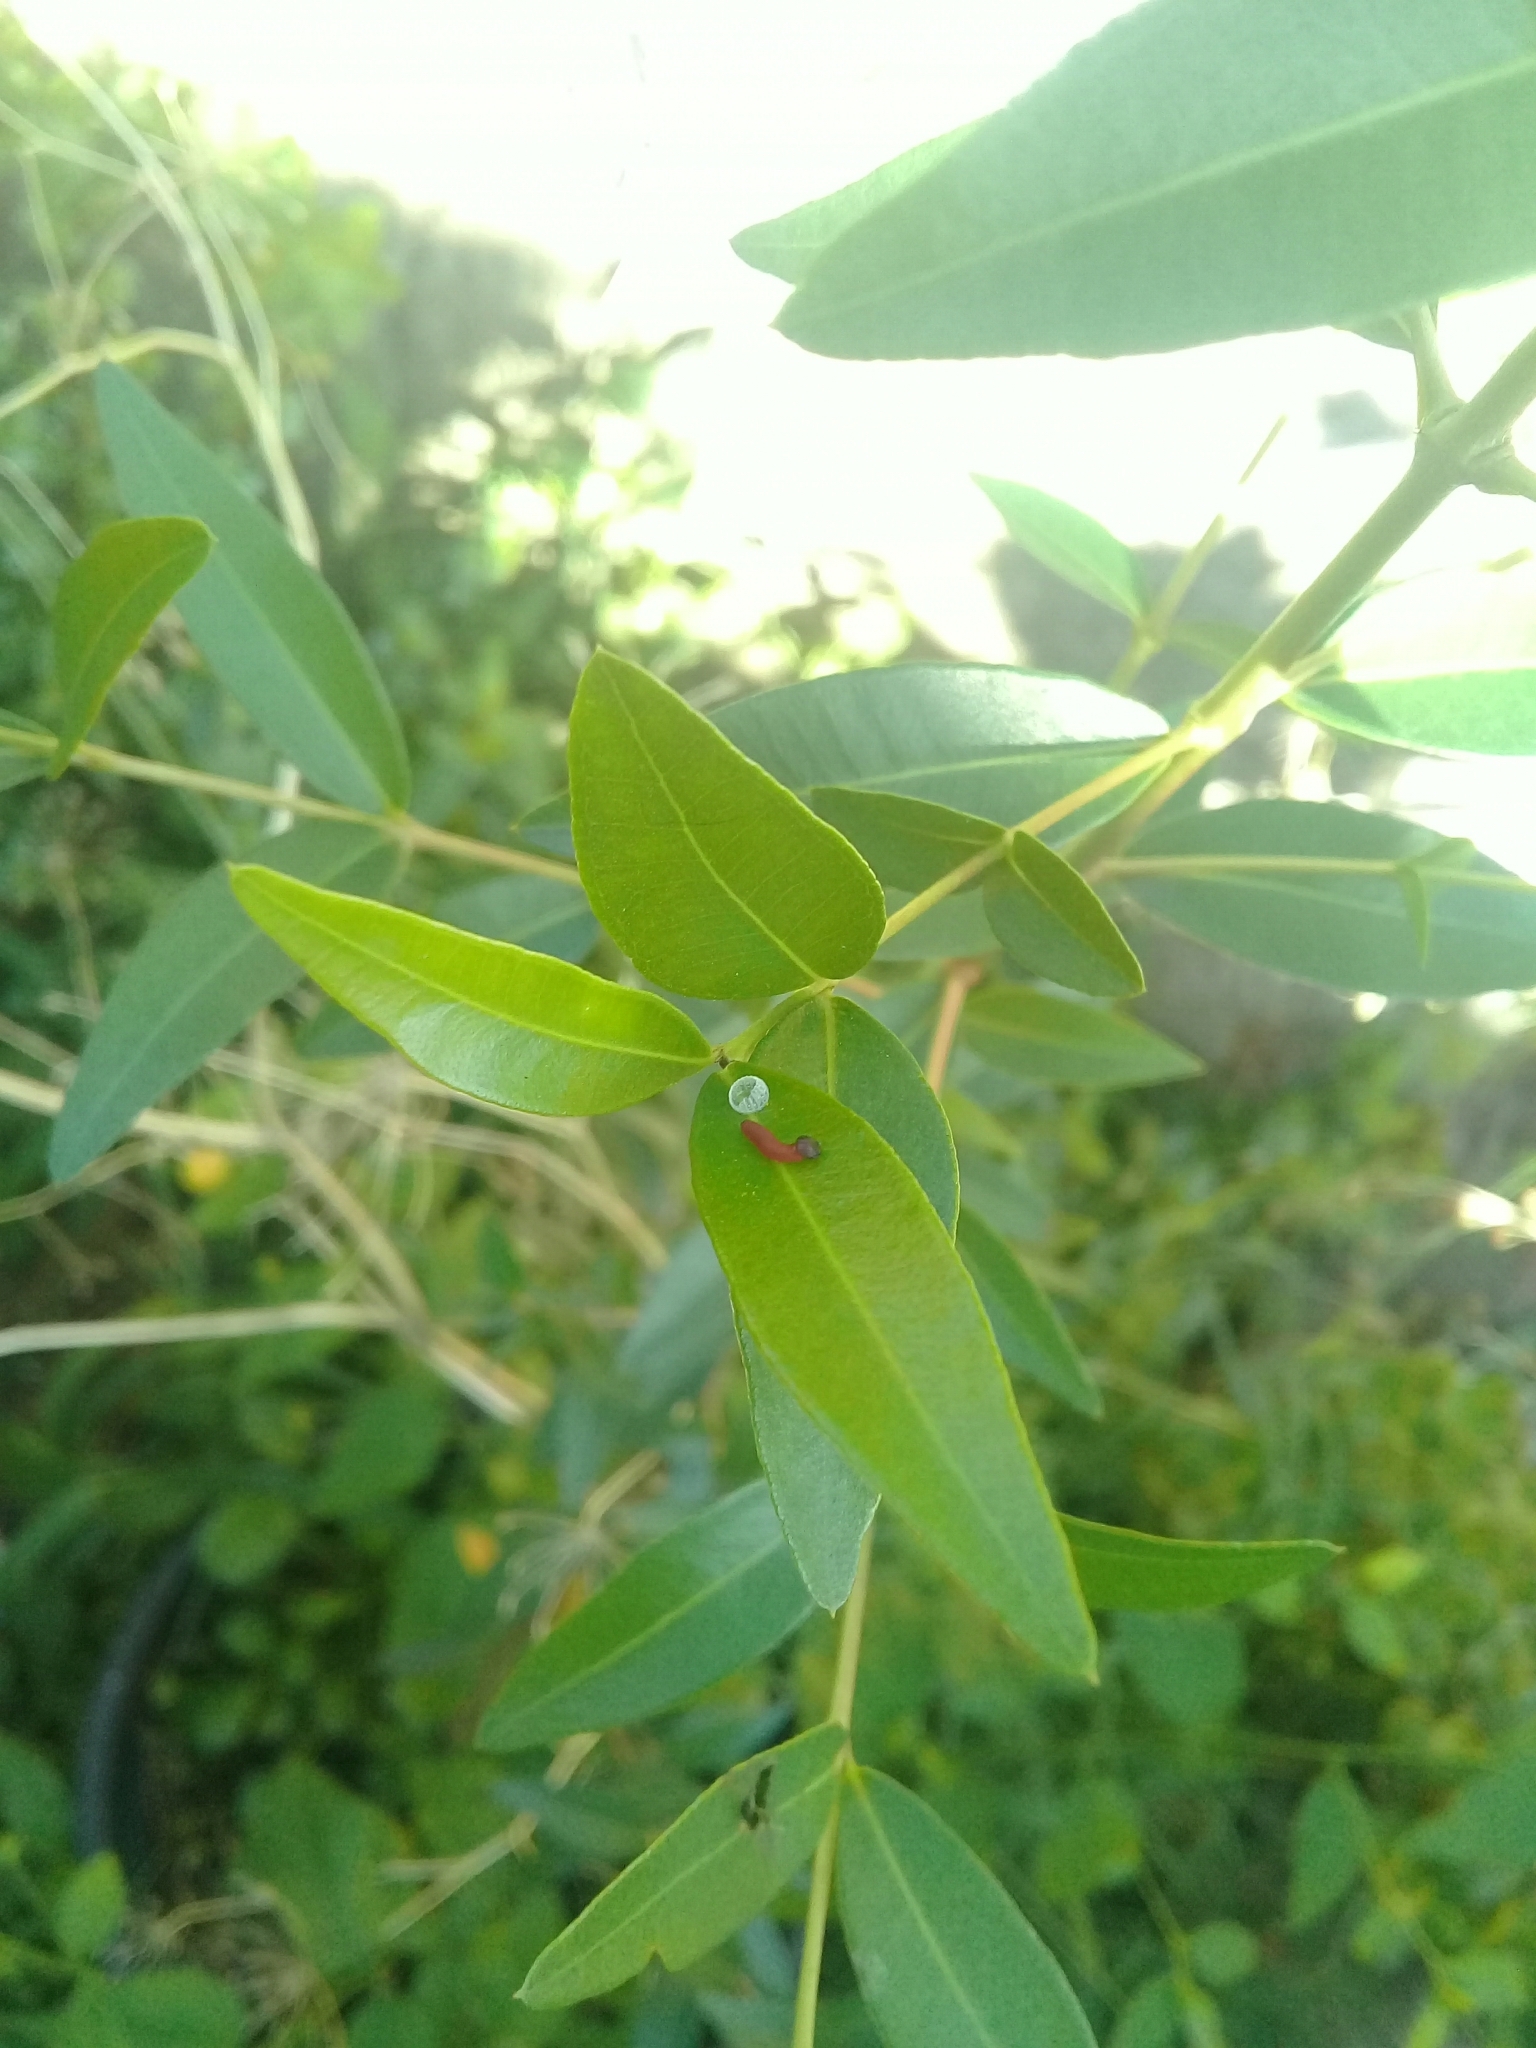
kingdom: Animalia
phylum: Arthropoda
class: Insecta
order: Lepidoptera
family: Hesperiidae
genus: Phocides
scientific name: Phocides polybius
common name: Guava skipper
